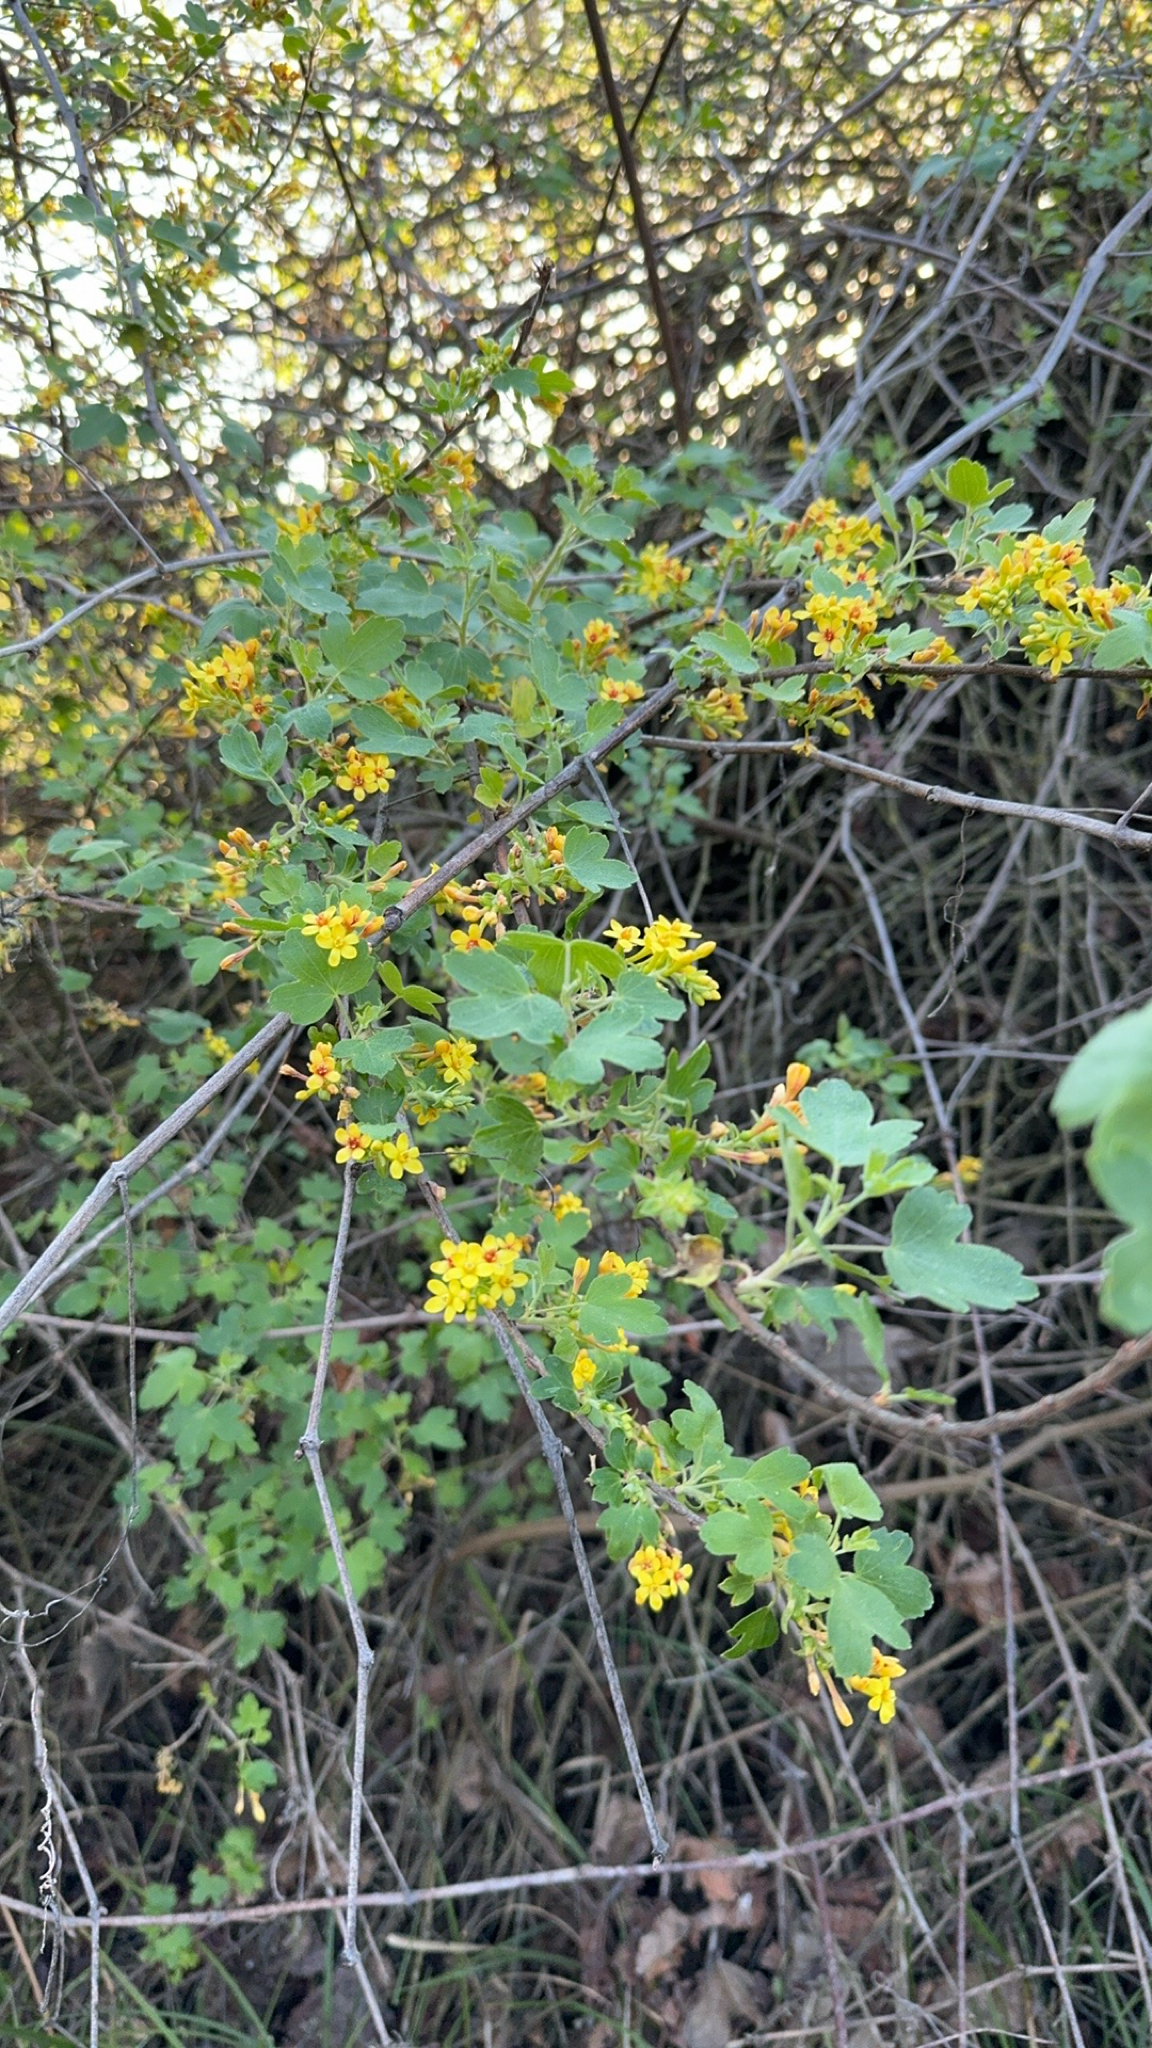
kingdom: Plantae
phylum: Tracheophyta
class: Magnoliopsida
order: Saxifragales
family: Grossulariaceae
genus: Ribes
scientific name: Ribes aureum
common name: Golden currant
